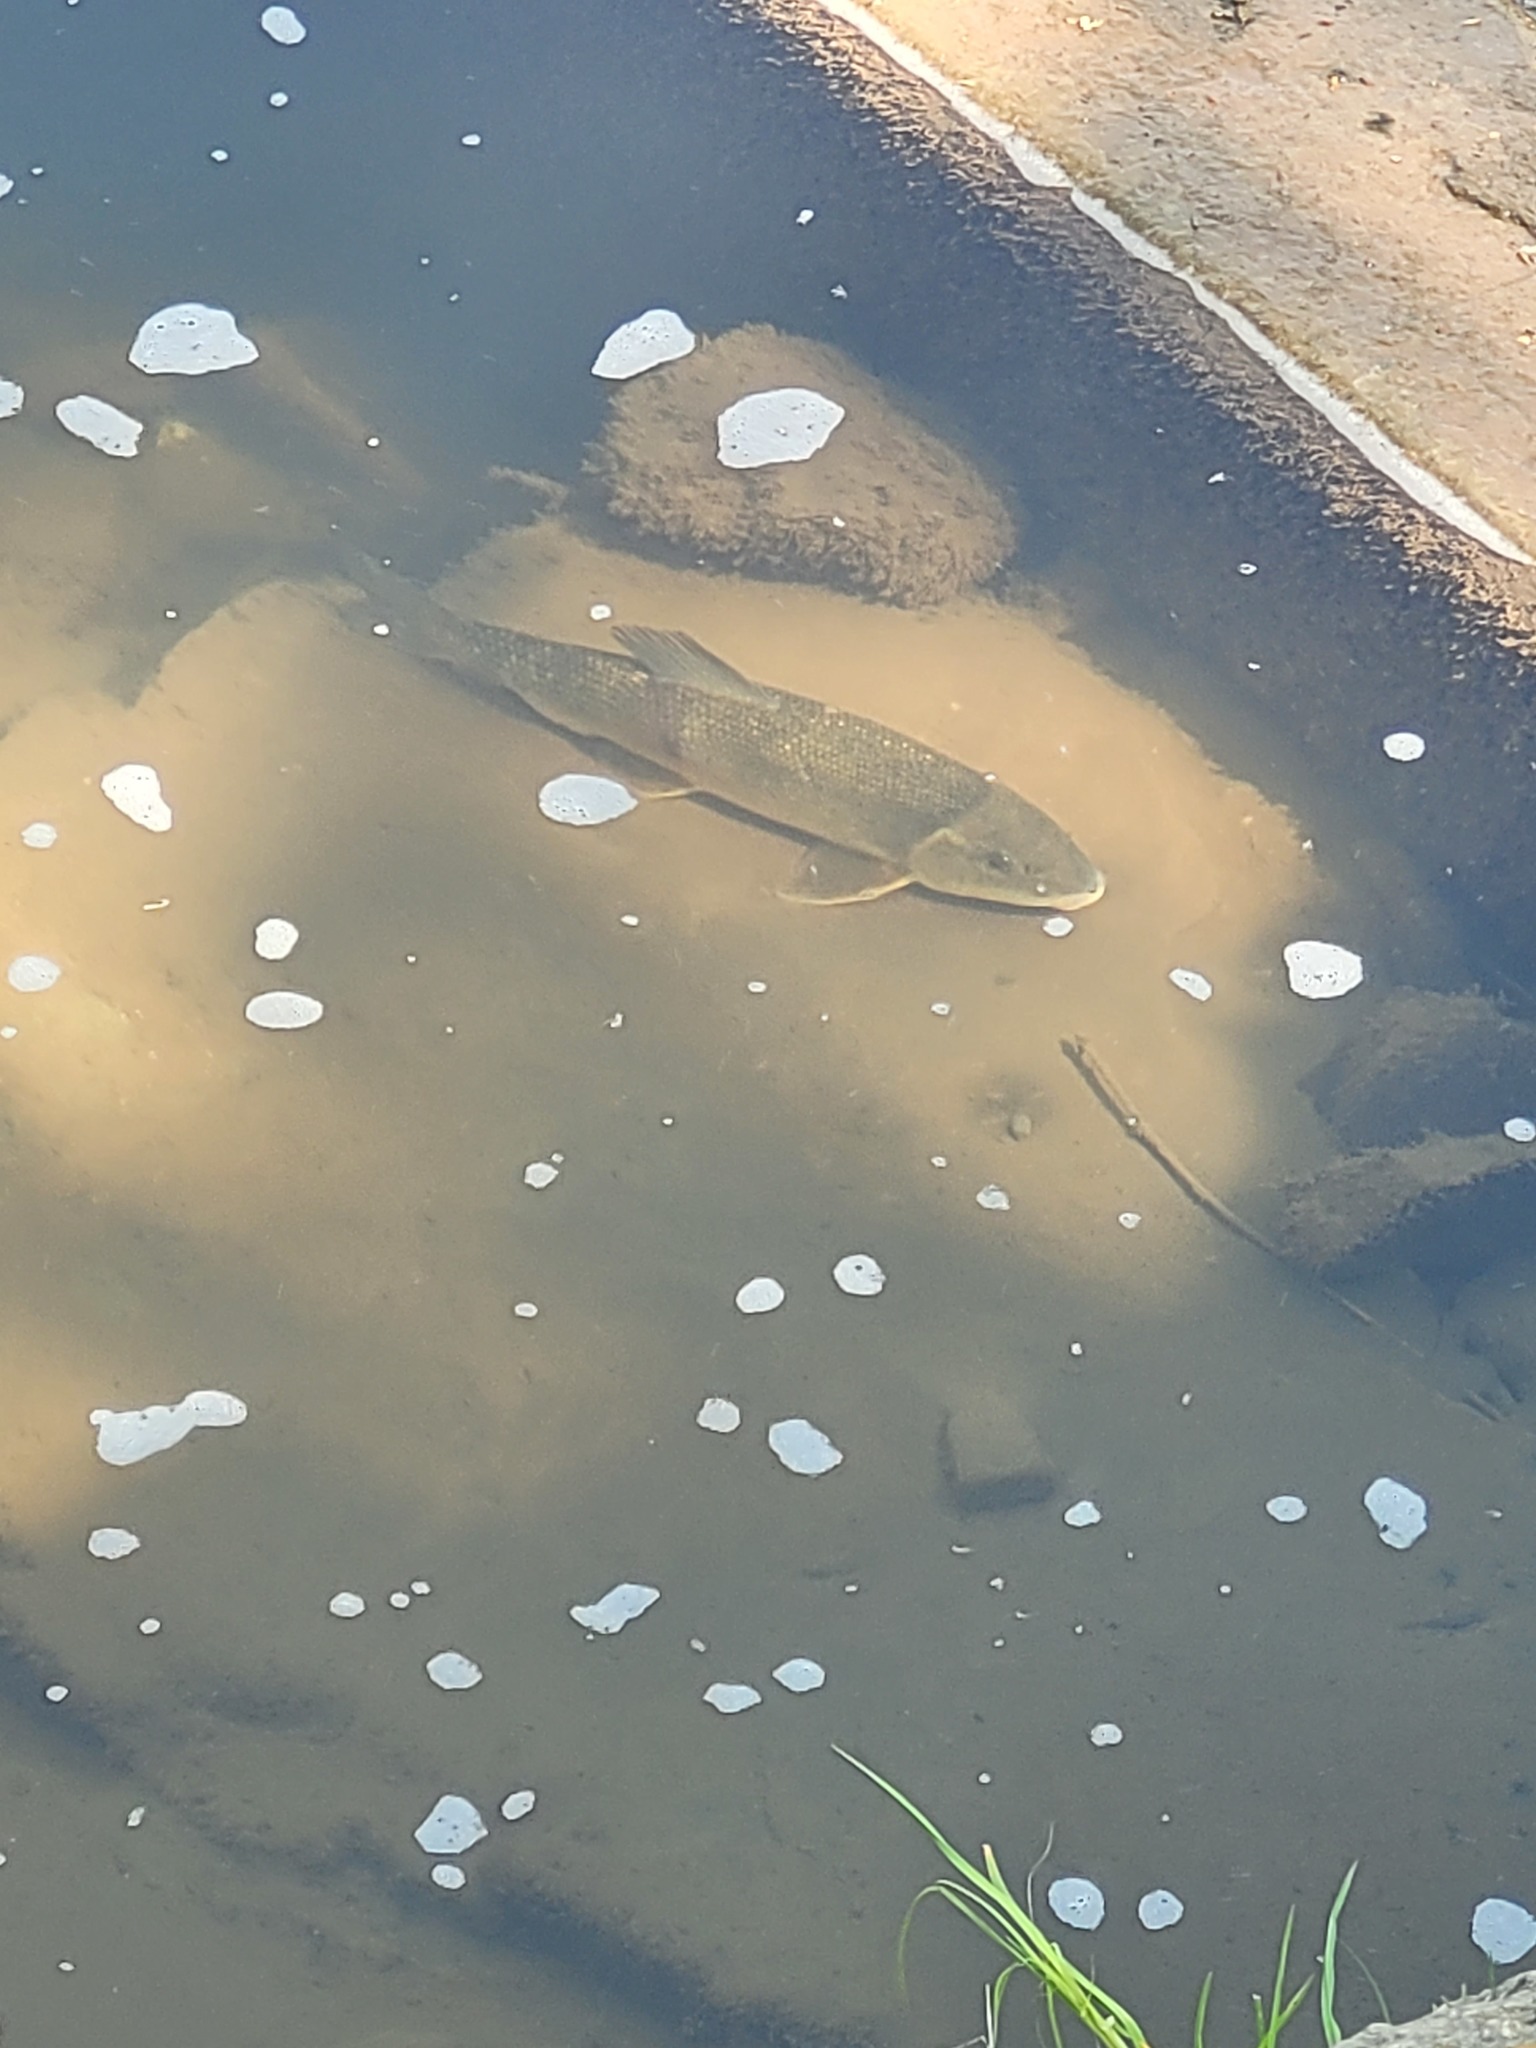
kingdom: Animalia
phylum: Chordata
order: Cypriniformes
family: Catostomidae
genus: Catostomus
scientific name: Catostomus commersonii
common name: White sucker
